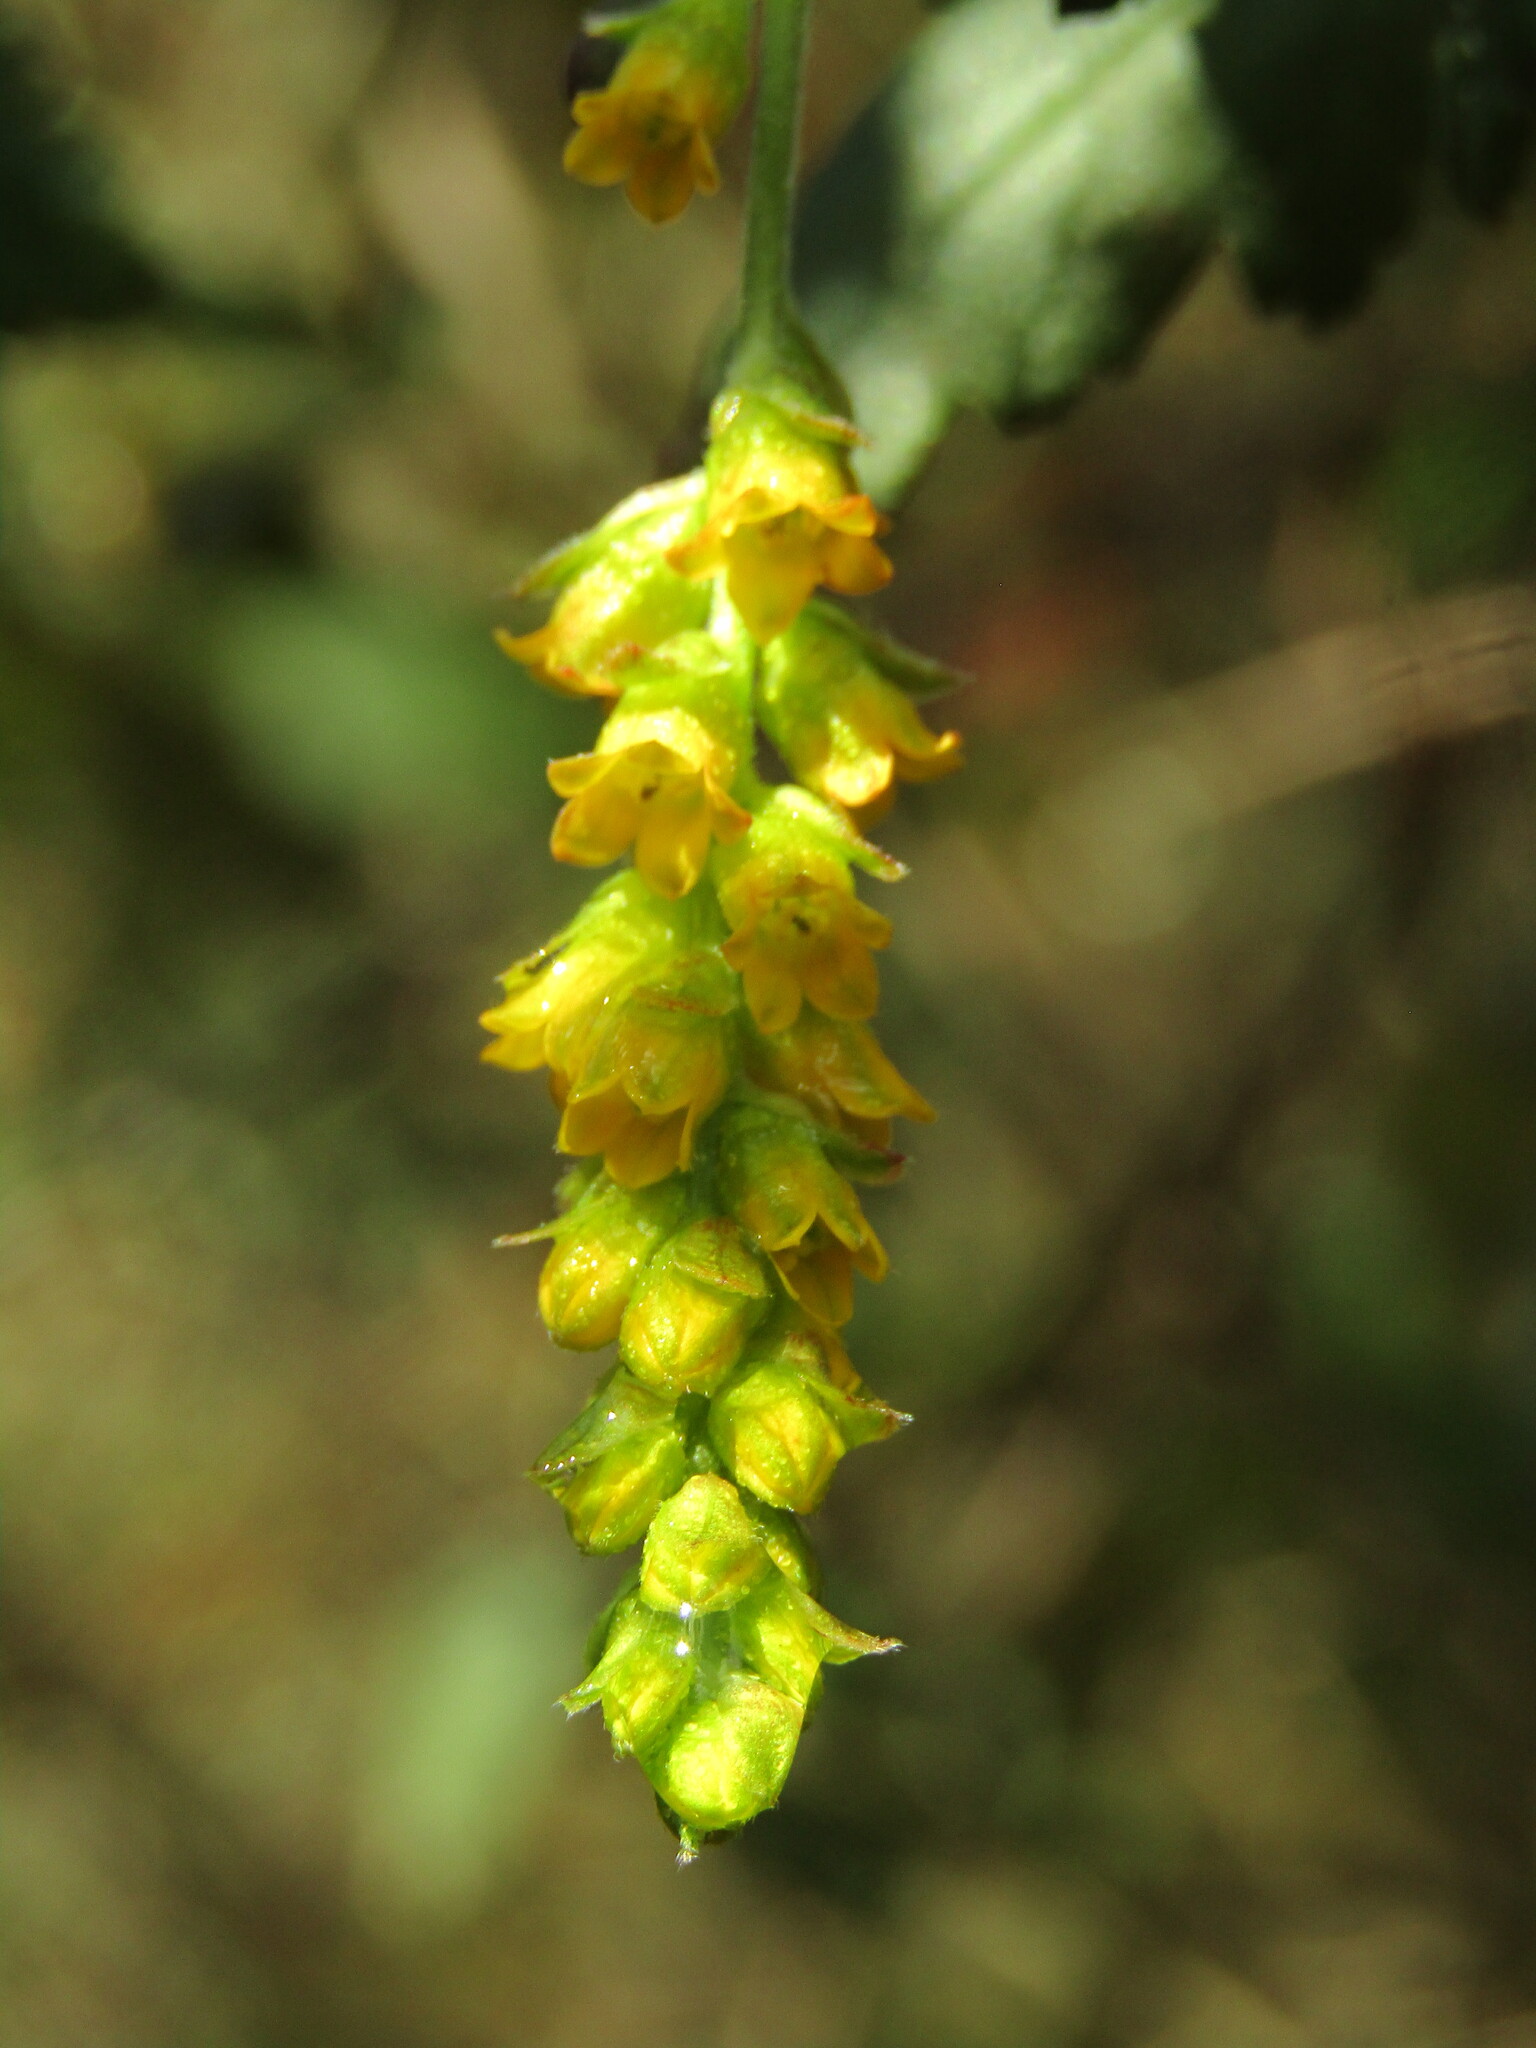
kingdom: Plantae
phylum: Tracheophyta
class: Magnoliopsida
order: Saxifragales
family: Grossulariaceae
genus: Ribes
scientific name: Ribes punctatum
